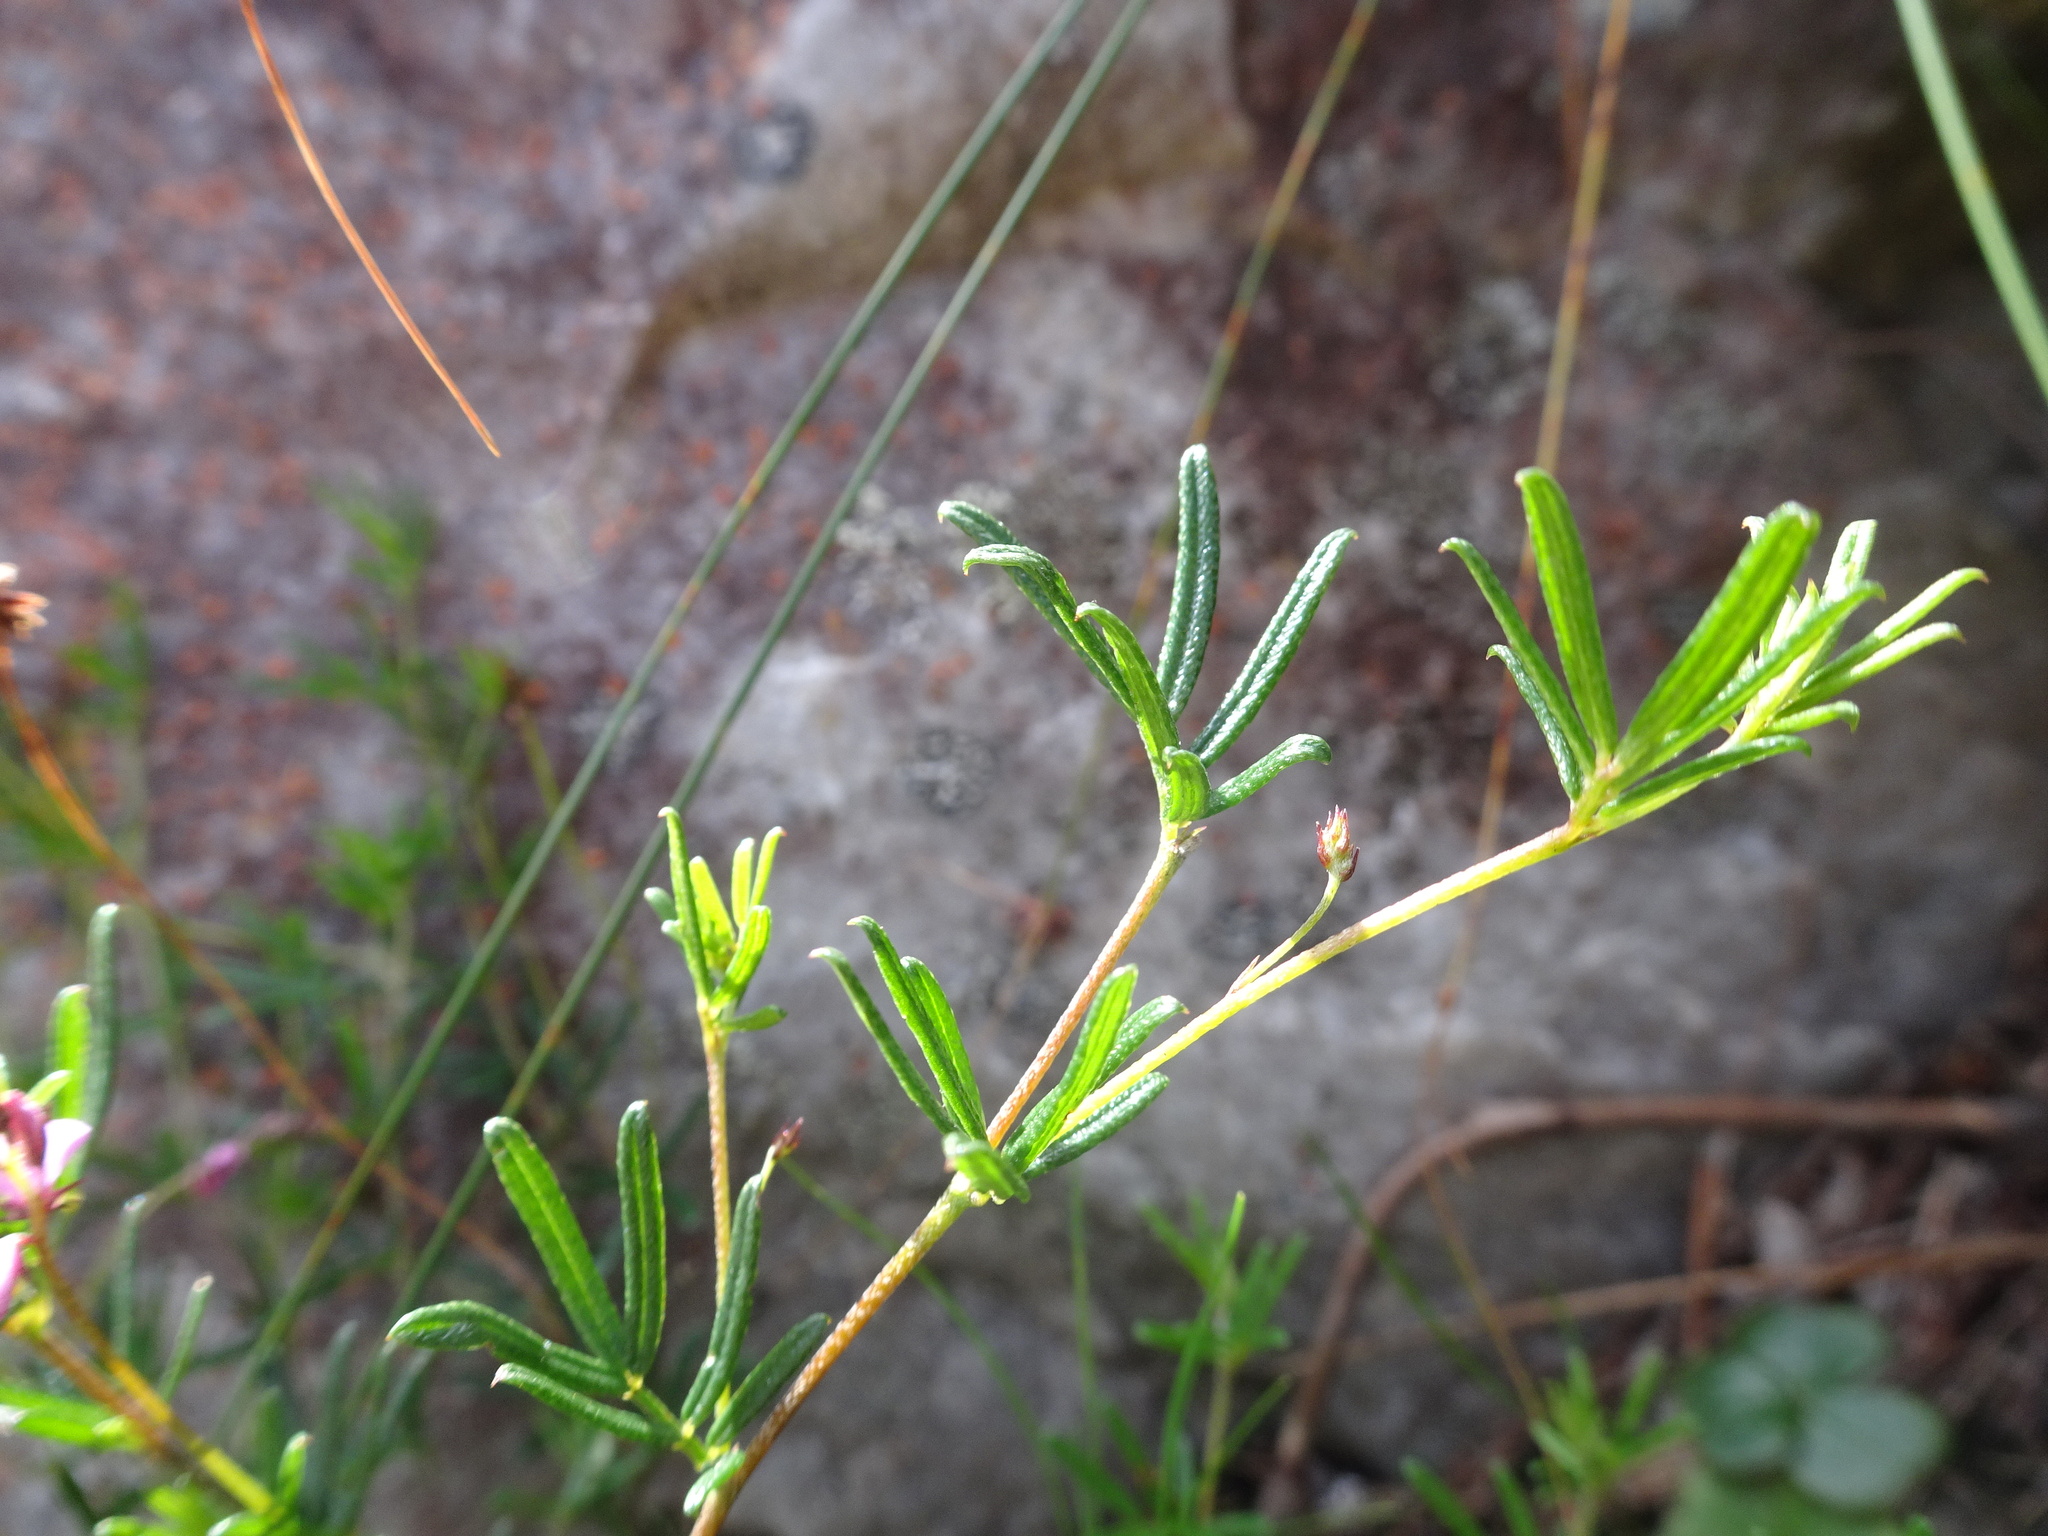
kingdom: Plantae
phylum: Tracheophyta
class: Magnoliopsida
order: Fabales
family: Fabaceae
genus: Indigofera
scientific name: Indigofera angustifolia
